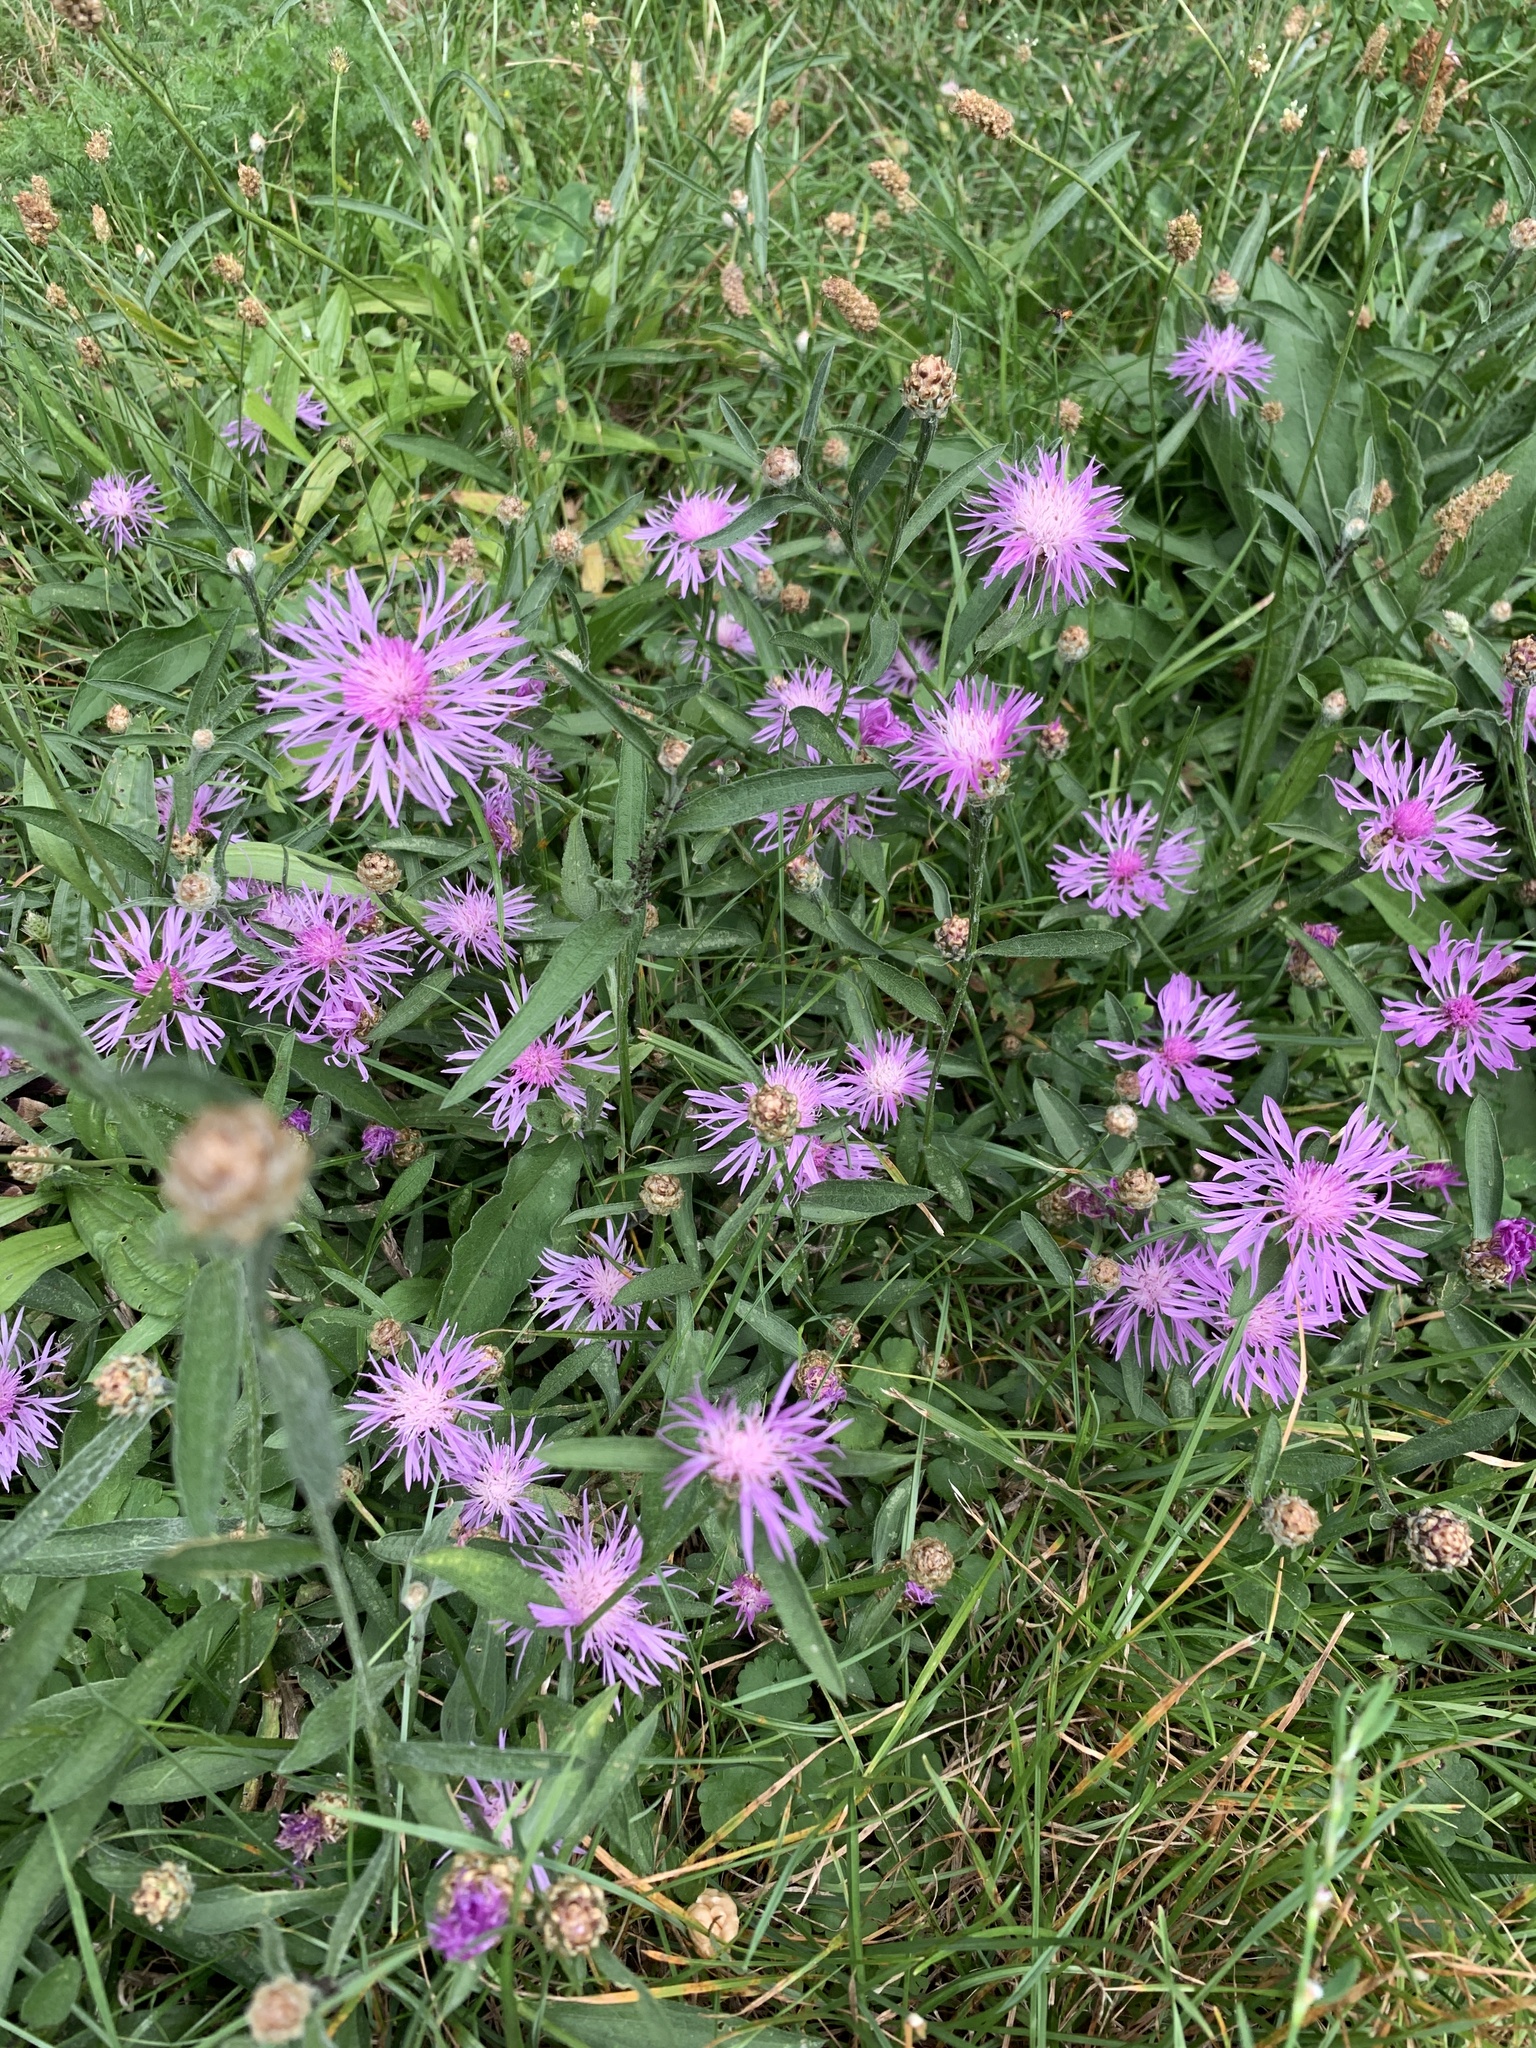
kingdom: Plantae
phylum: Tracheophyta
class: Magnoliopsida
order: Asterales
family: Asteraceae
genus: Centaurea
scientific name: Centaurea jacea
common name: Brown knapweed
